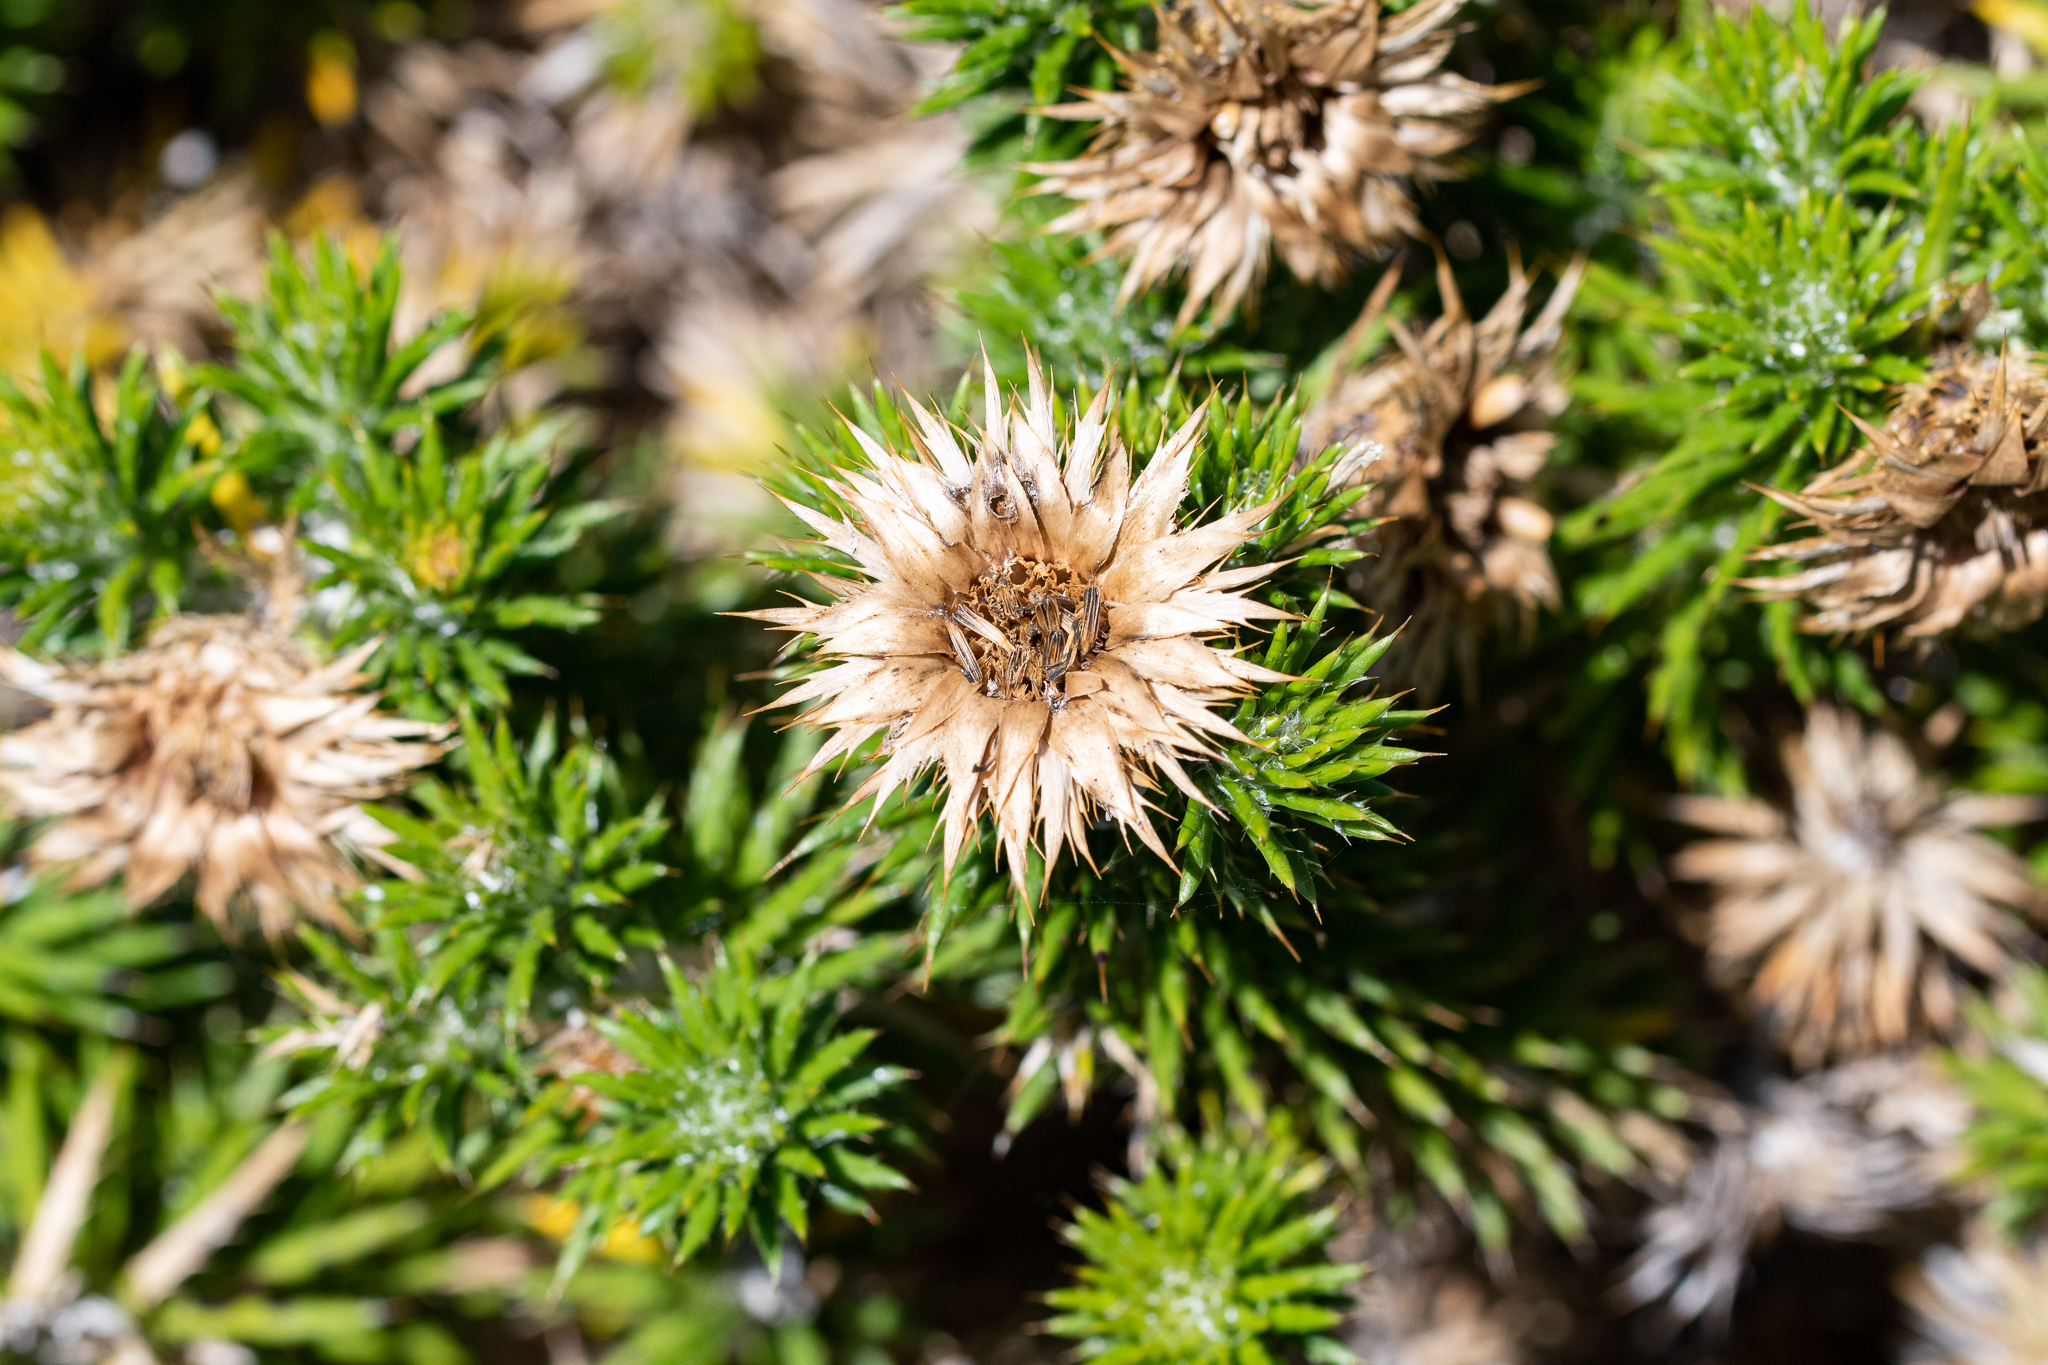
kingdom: Plantae
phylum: Tracheophyta
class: Magnoliopsida
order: Asterales
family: Asteraceae
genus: Cullumia
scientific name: Cullumia squarrosa
